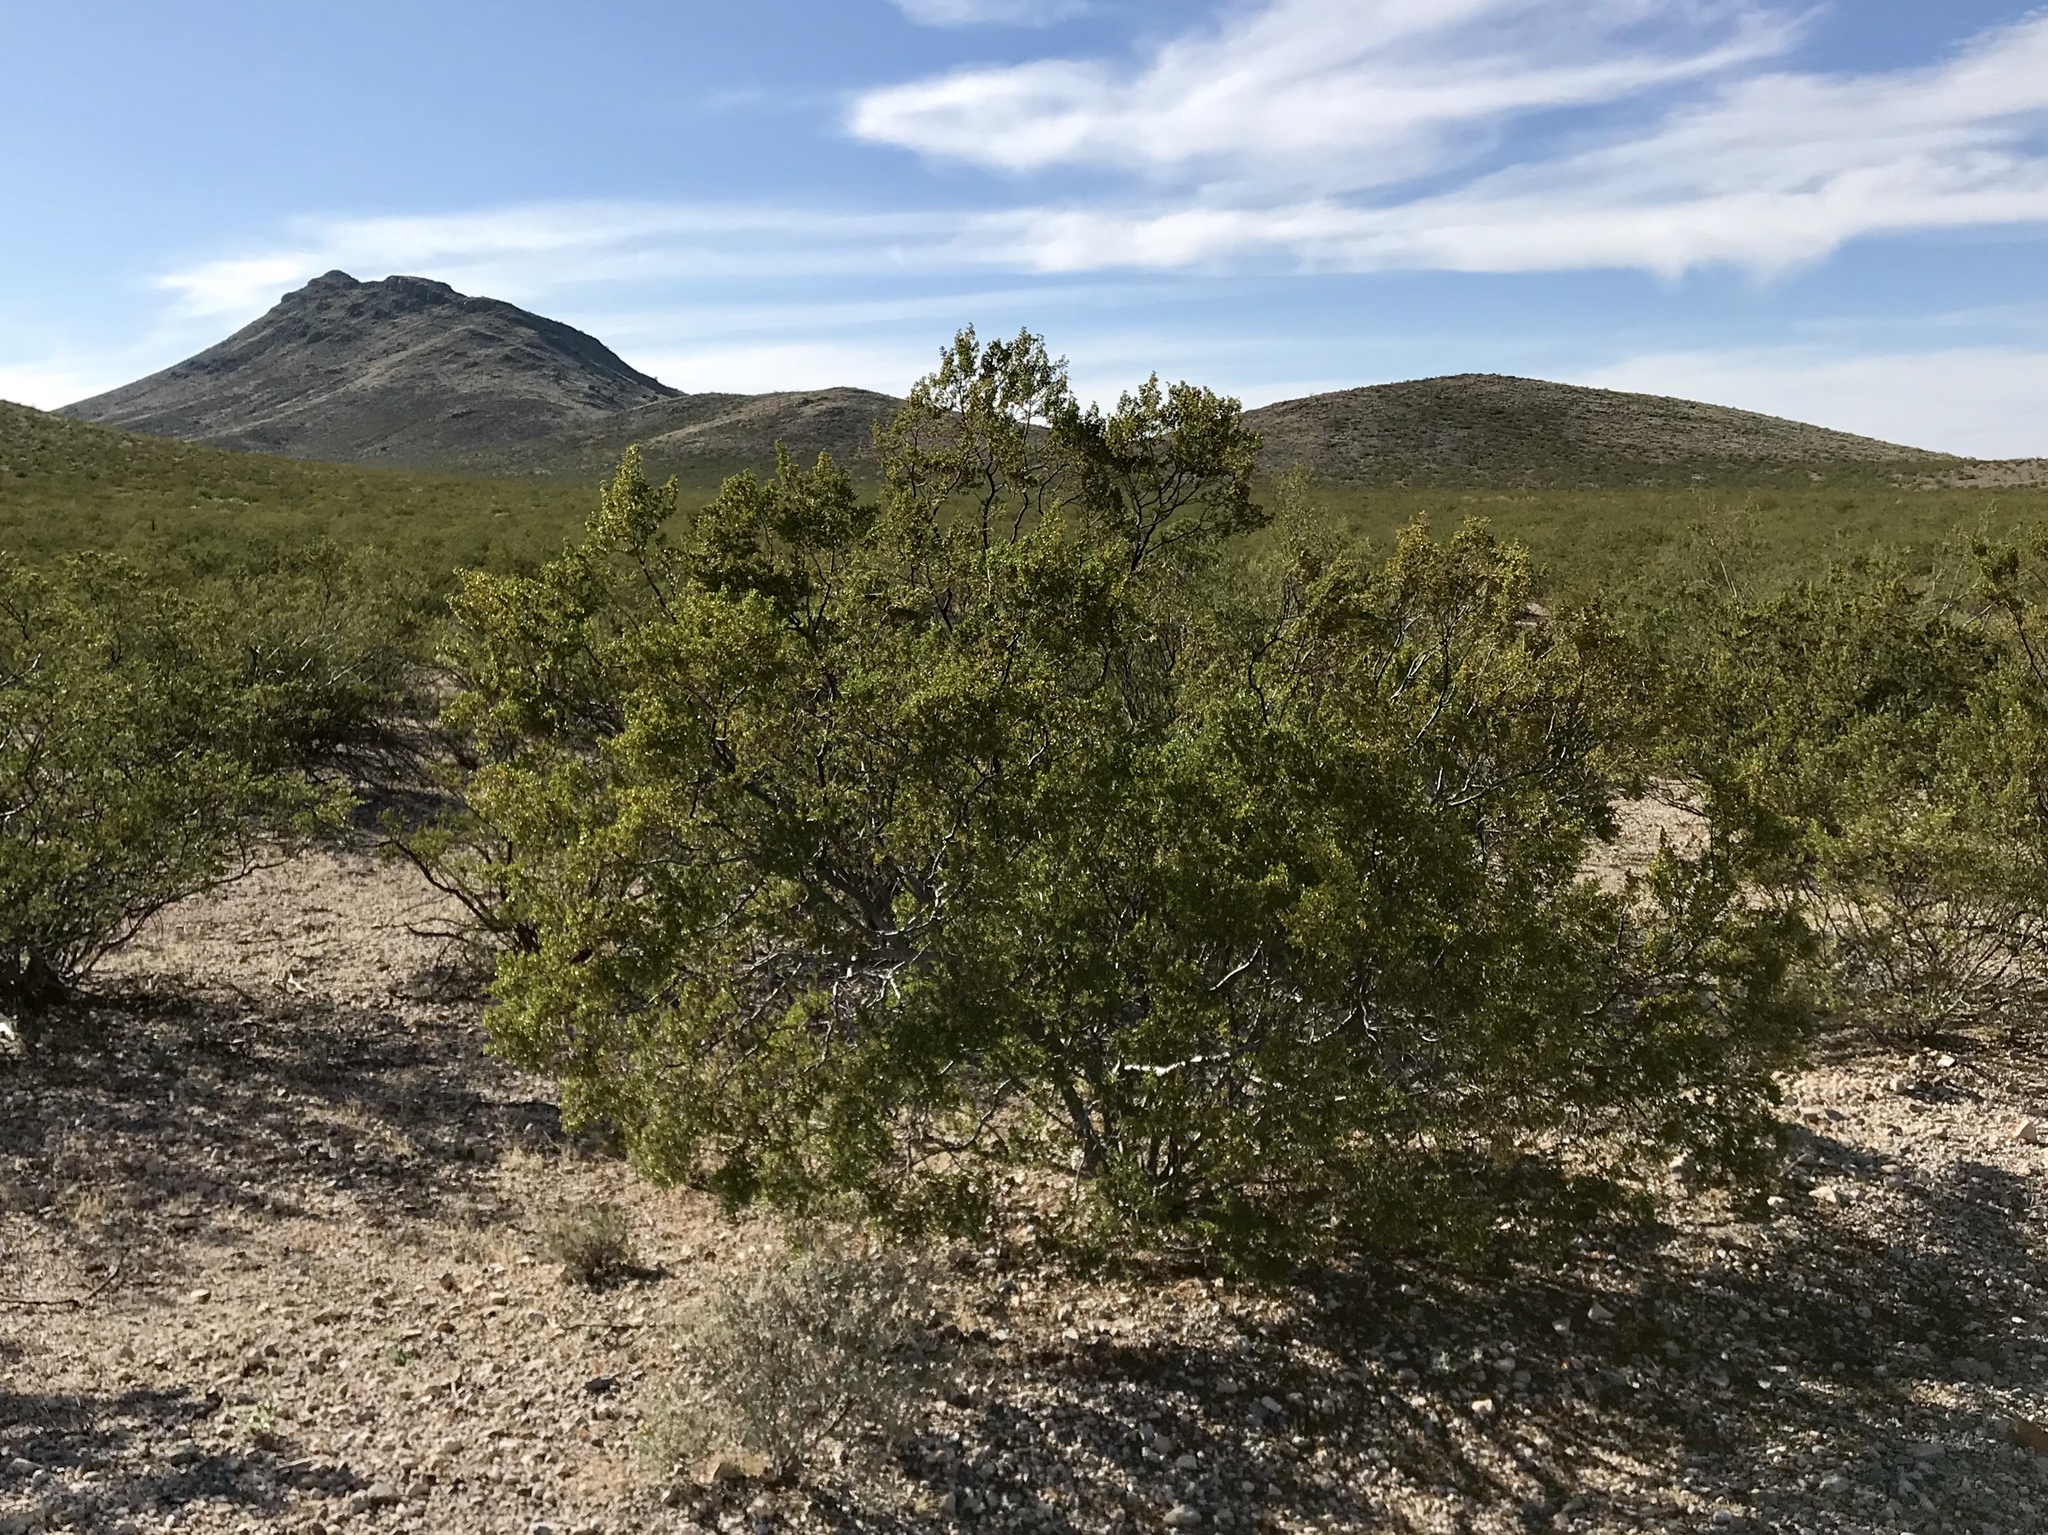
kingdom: Plantae
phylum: Tracheophyta
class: Magnoliopsida
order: Zygophyllales
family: Zygophyllaceae
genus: Larrea
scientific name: Larrea tridentata
